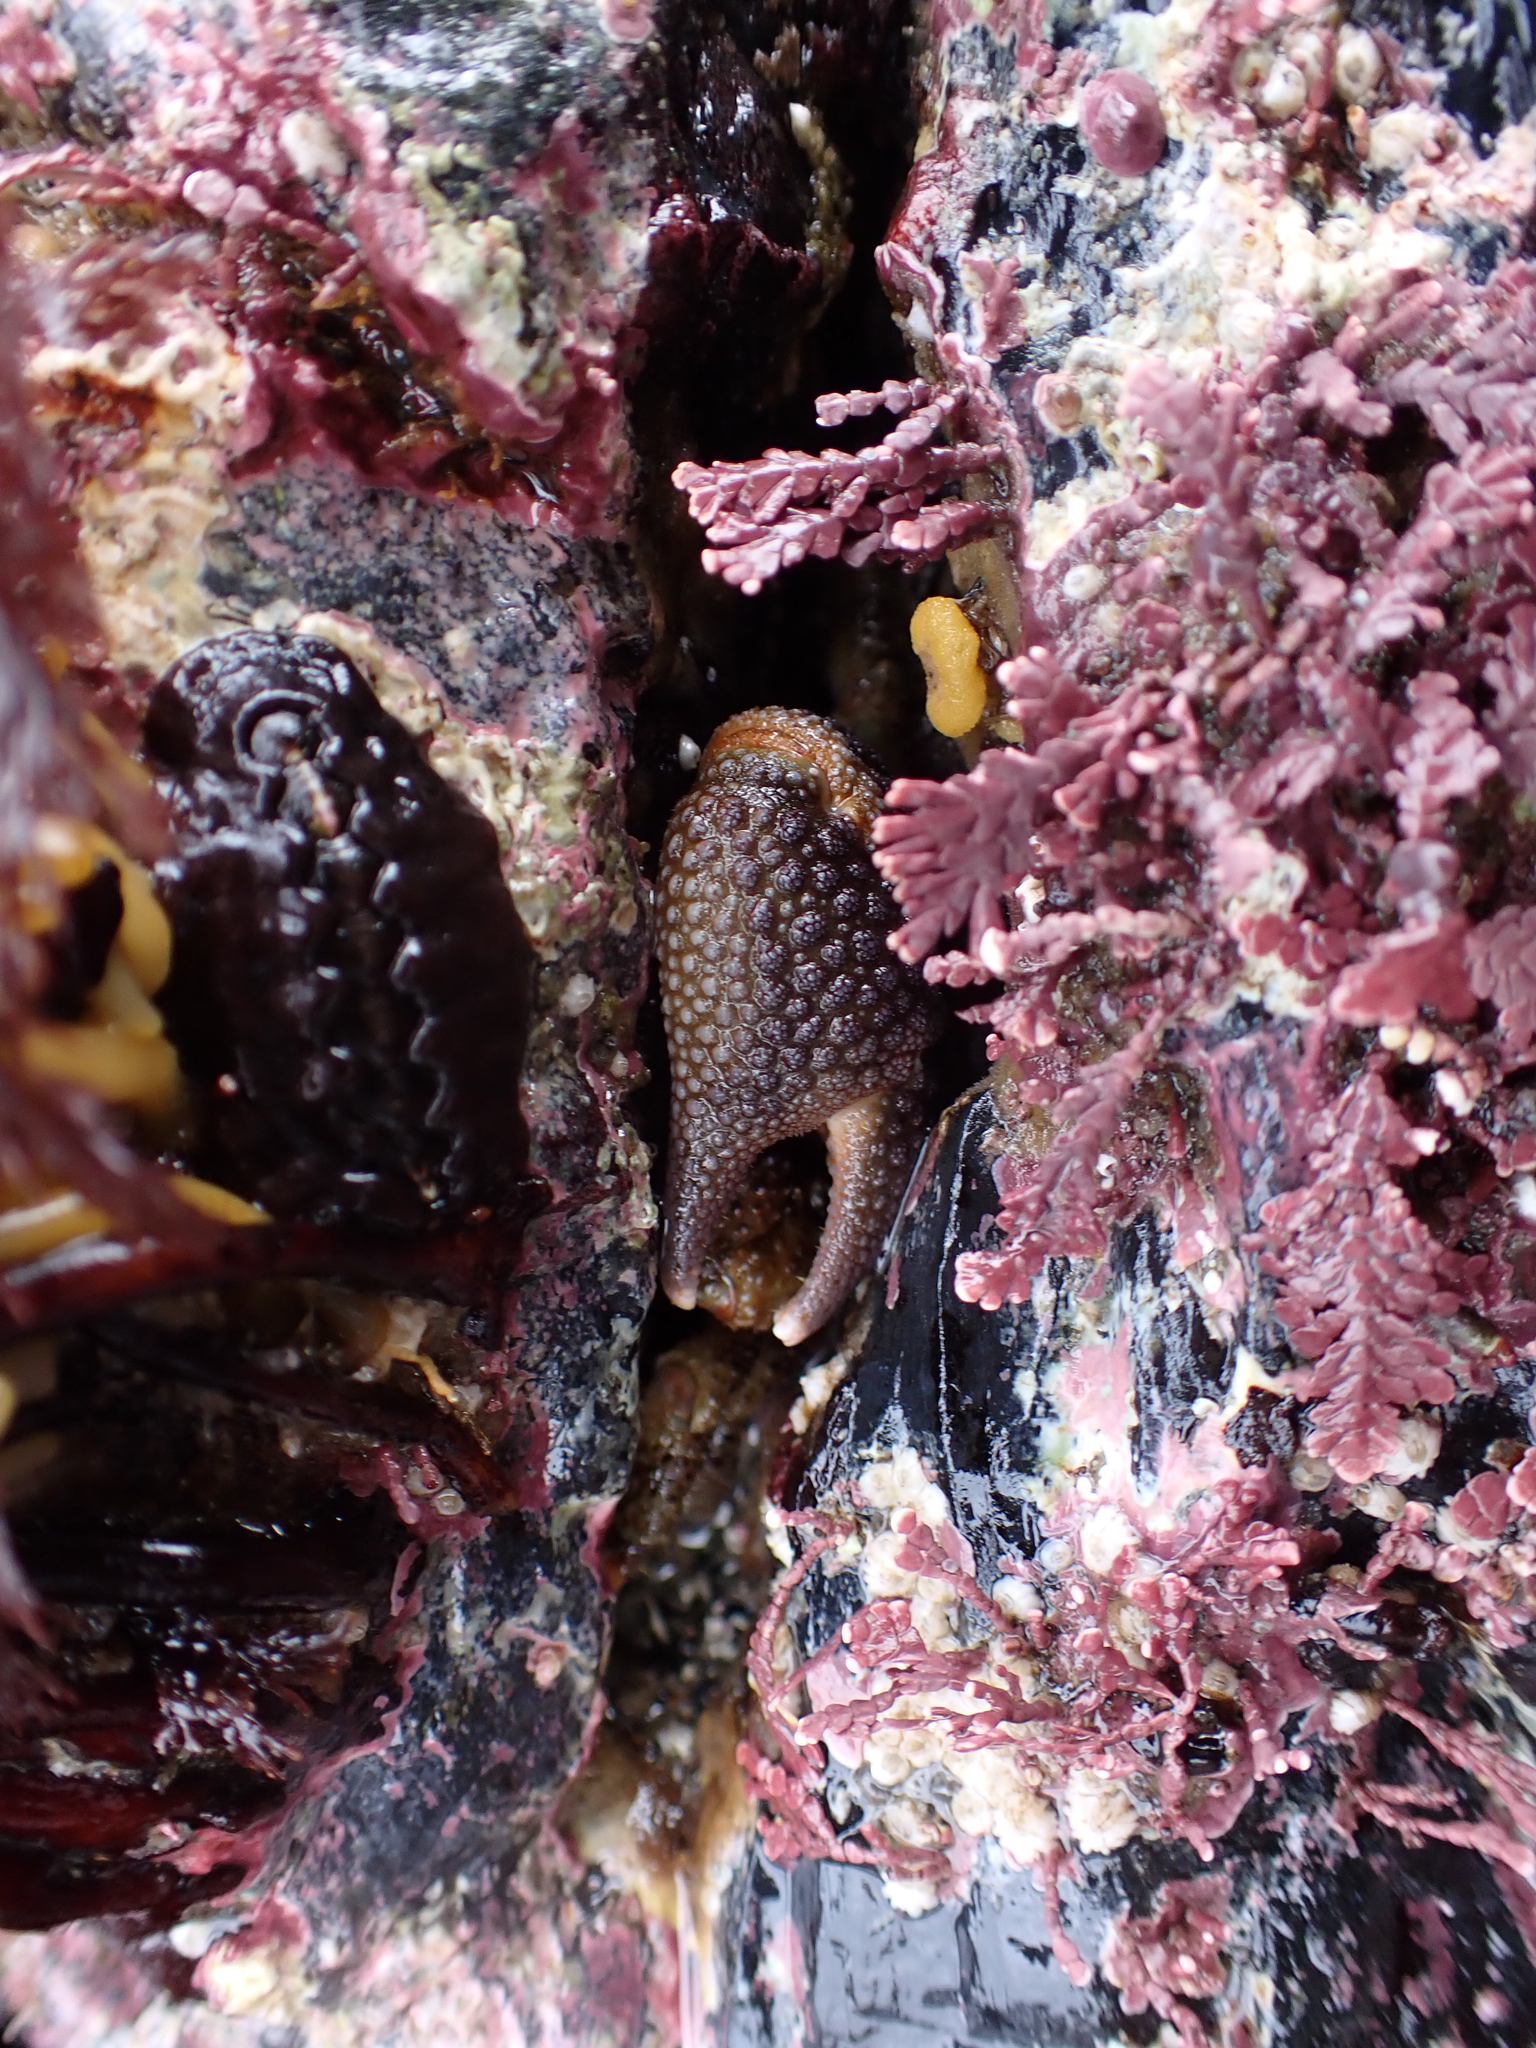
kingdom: Animalia
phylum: Arthropoda
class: Malacostraca
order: Decapoda
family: Hapalogastridae
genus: Oedignathus
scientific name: Oedignathus inermis
